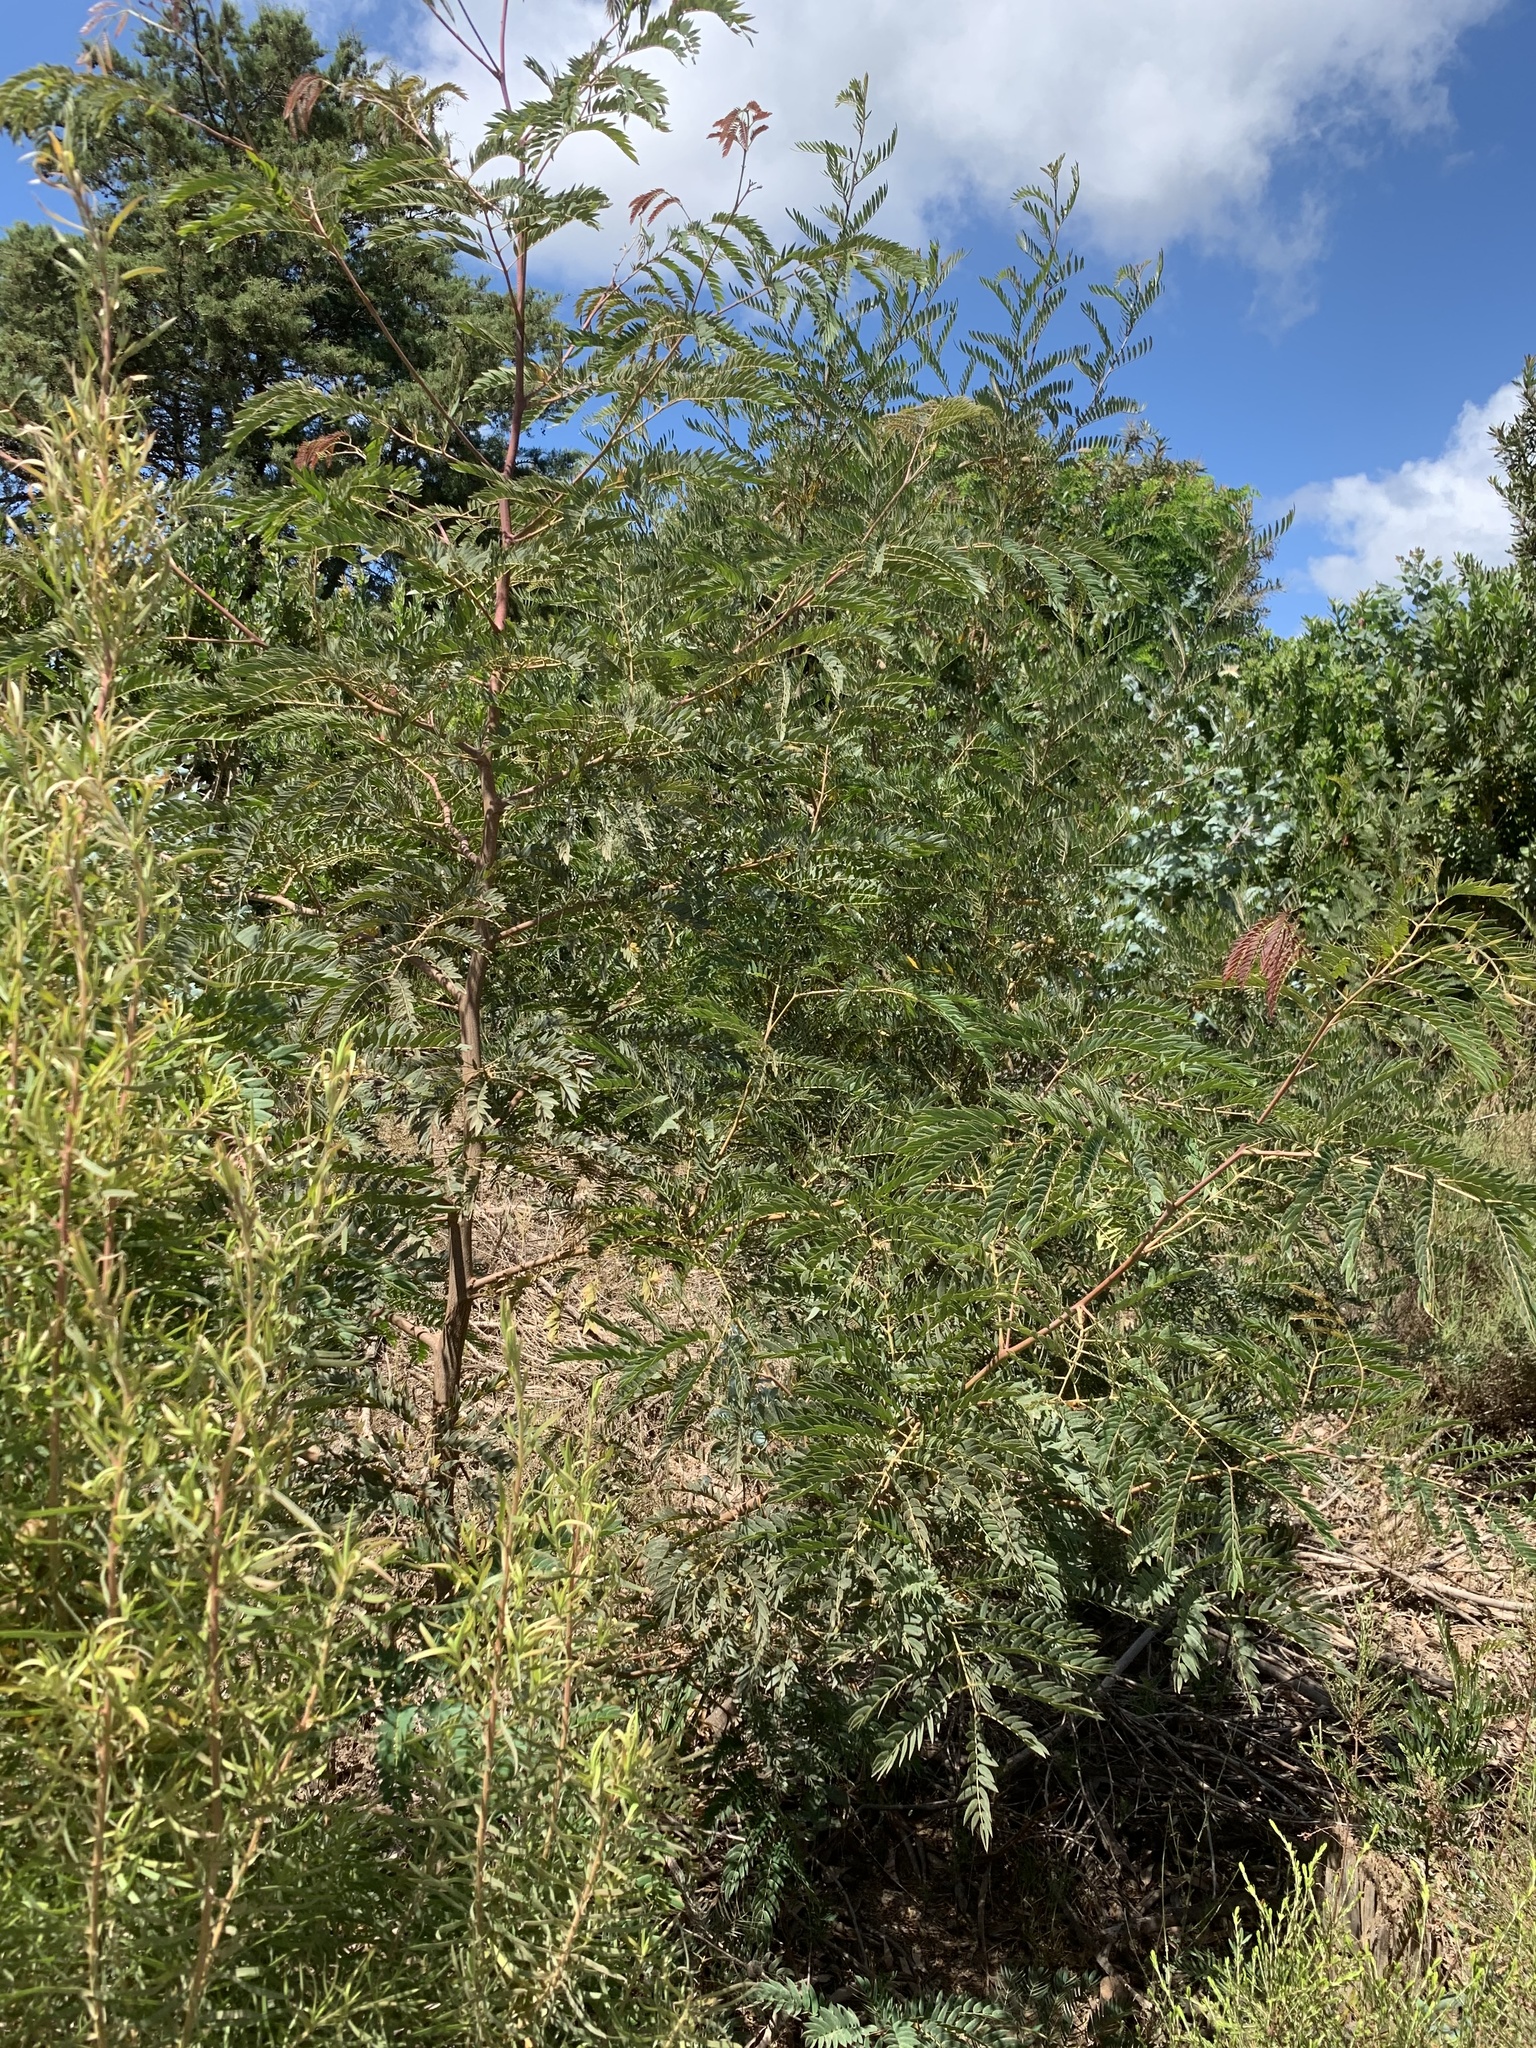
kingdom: Plantae
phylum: Tracheophyta
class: Magnoliopsida
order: Fabales
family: Fabaceae
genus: Acacia
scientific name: Acacia elata
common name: Cedar wattle
